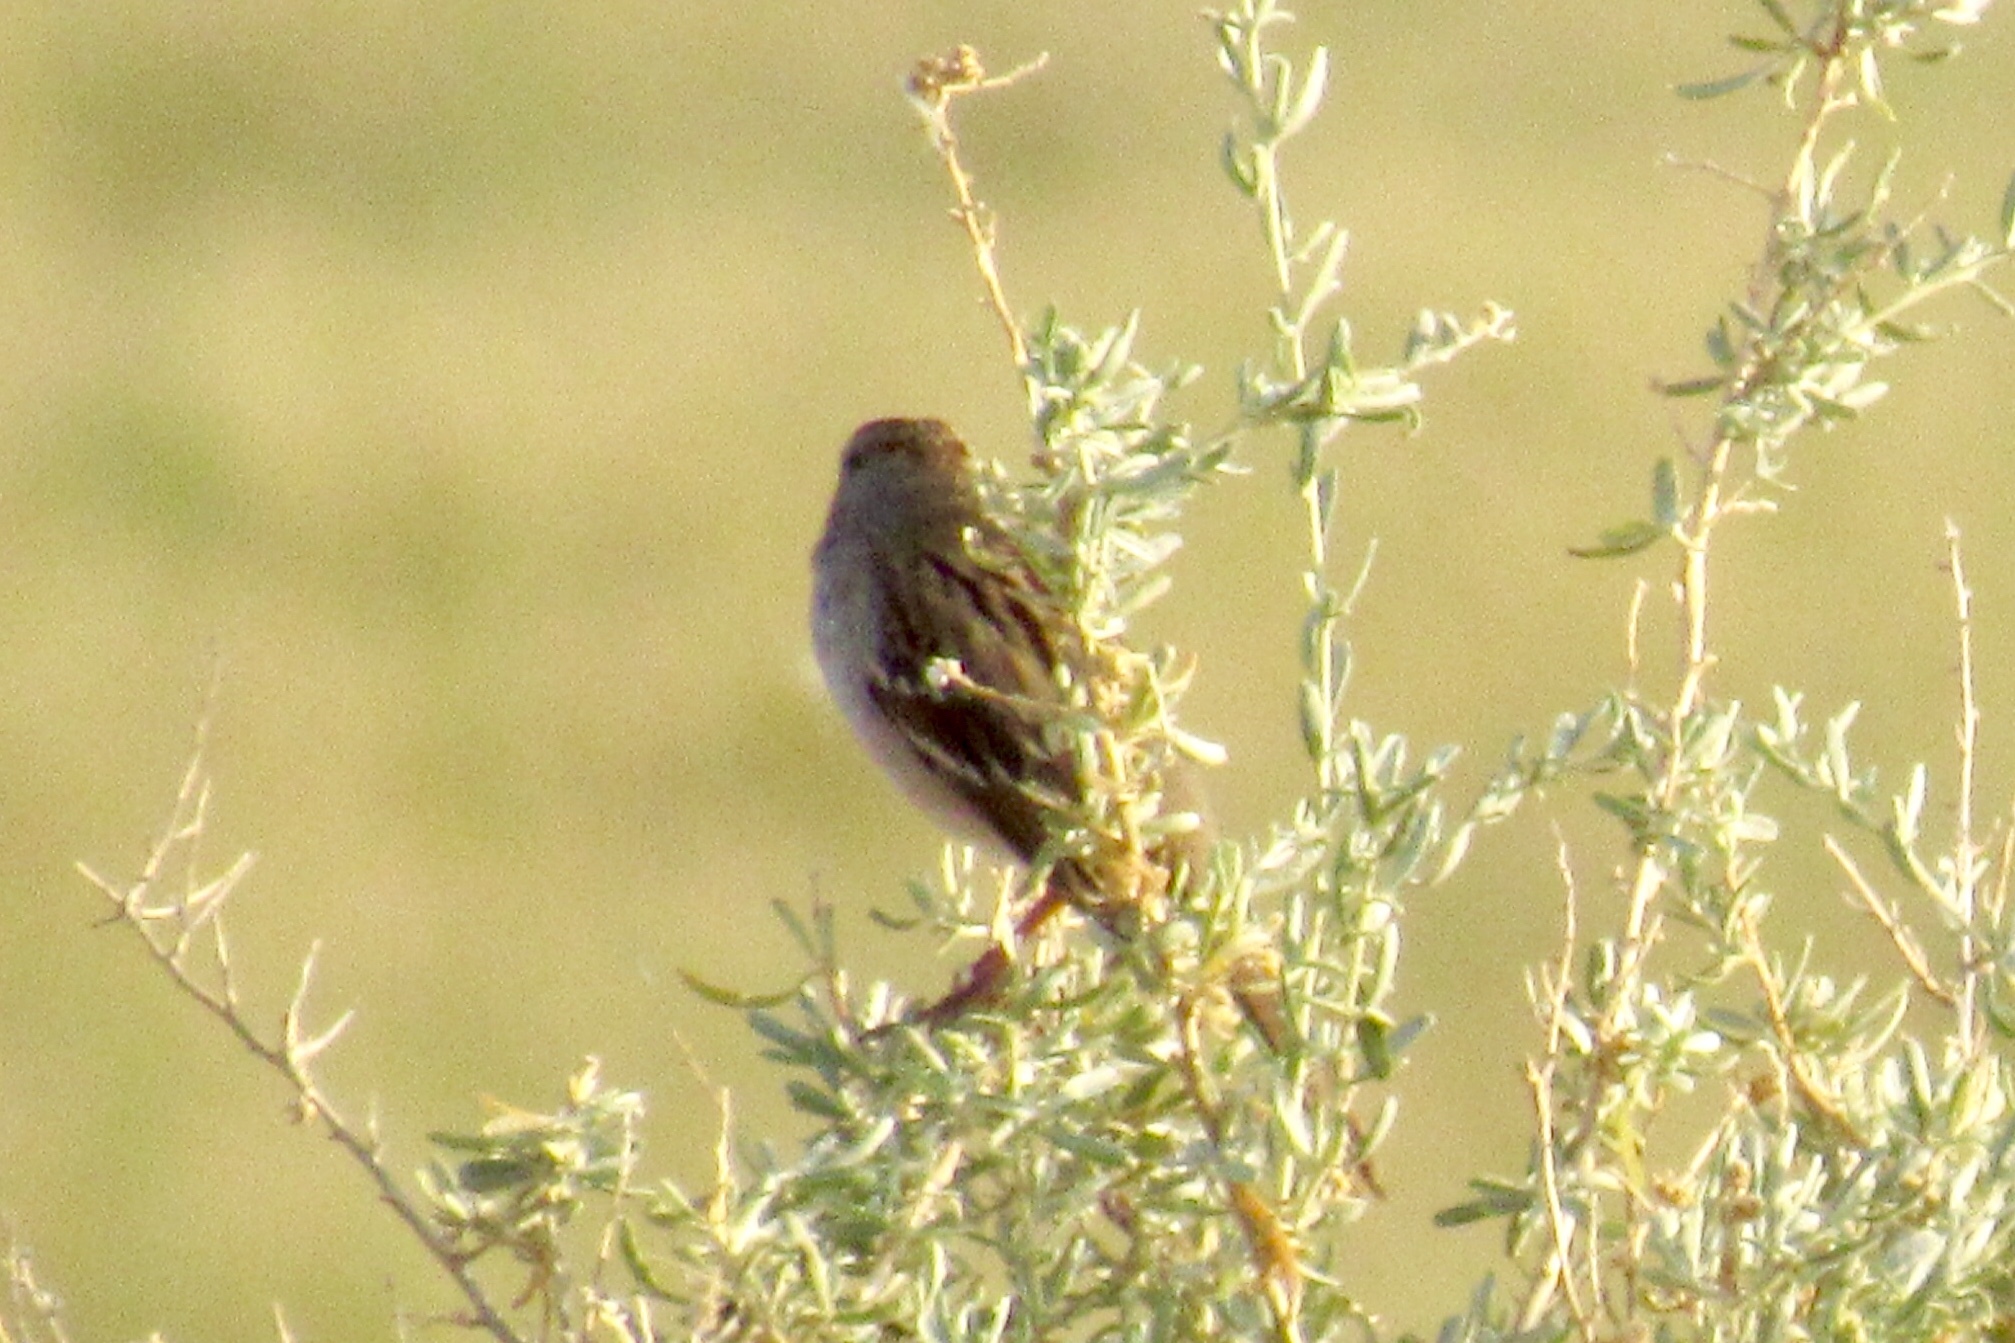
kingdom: Animalia
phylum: Chordata
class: Aves
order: Passeriformes
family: Passerellidae
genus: Zonotrichia
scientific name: Zonotrichia leucophrys
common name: White-crowned sparrow
